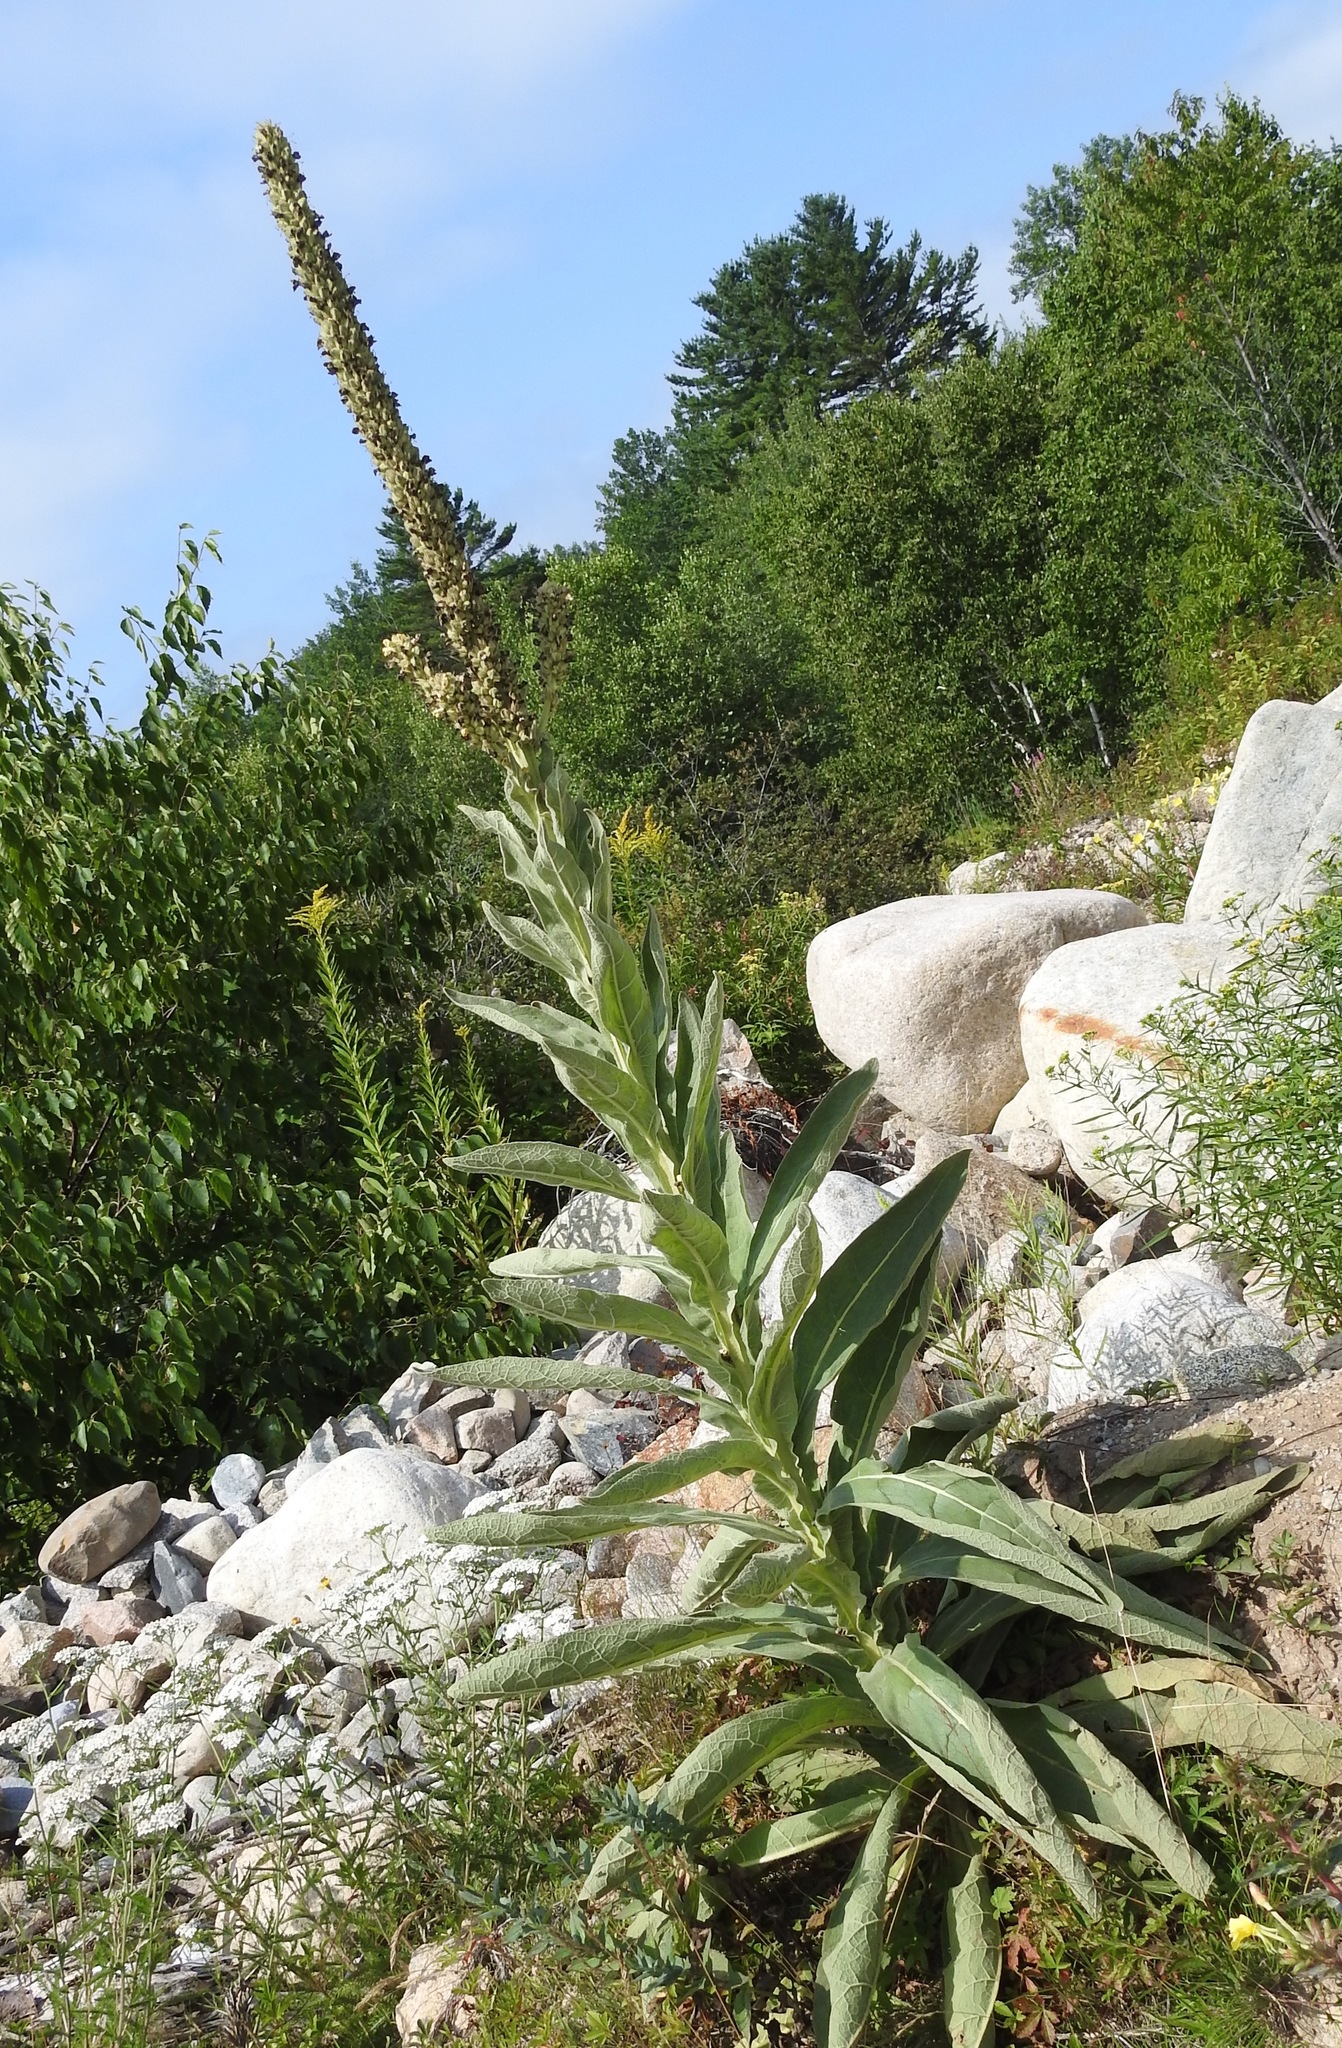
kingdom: Plantae
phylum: Tracheophyta
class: Magnoliopsida
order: Lamiales
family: Scrophulariaceae
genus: Verbascum
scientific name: Verbascum thapsus
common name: Common mullein
